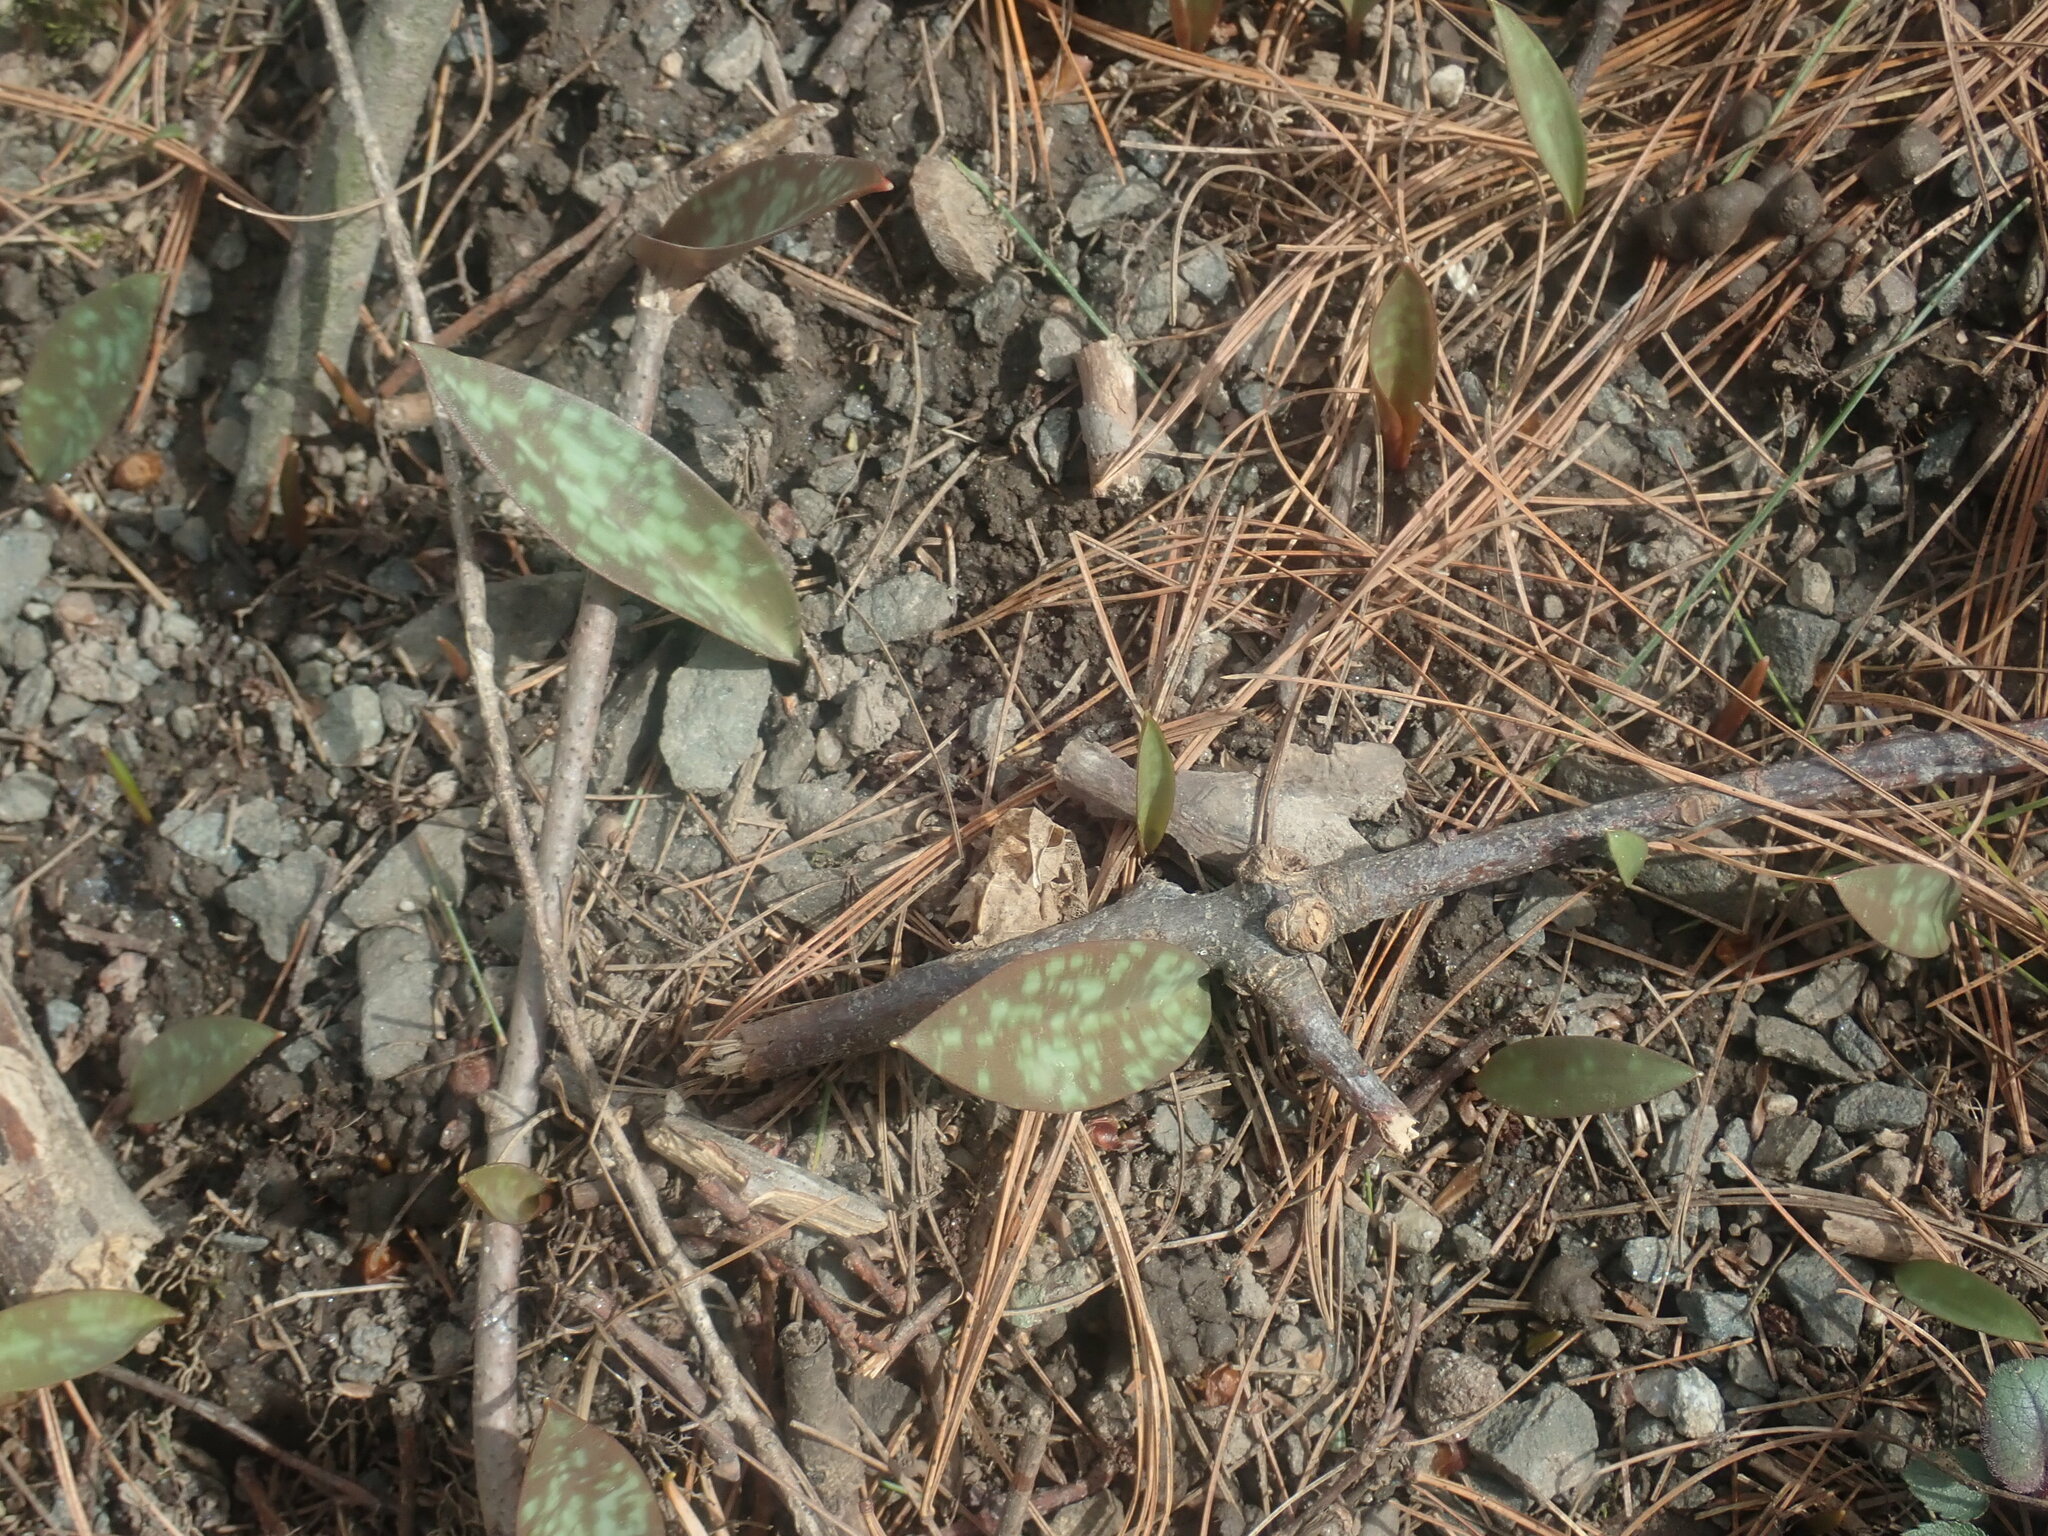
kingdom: Plantae
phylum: Tracheophyta
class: Liliopsida
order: Liliales
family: Liliaceae
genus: Erythronium
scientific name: Erythronium americanum
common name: Yellow adder's-tongue
